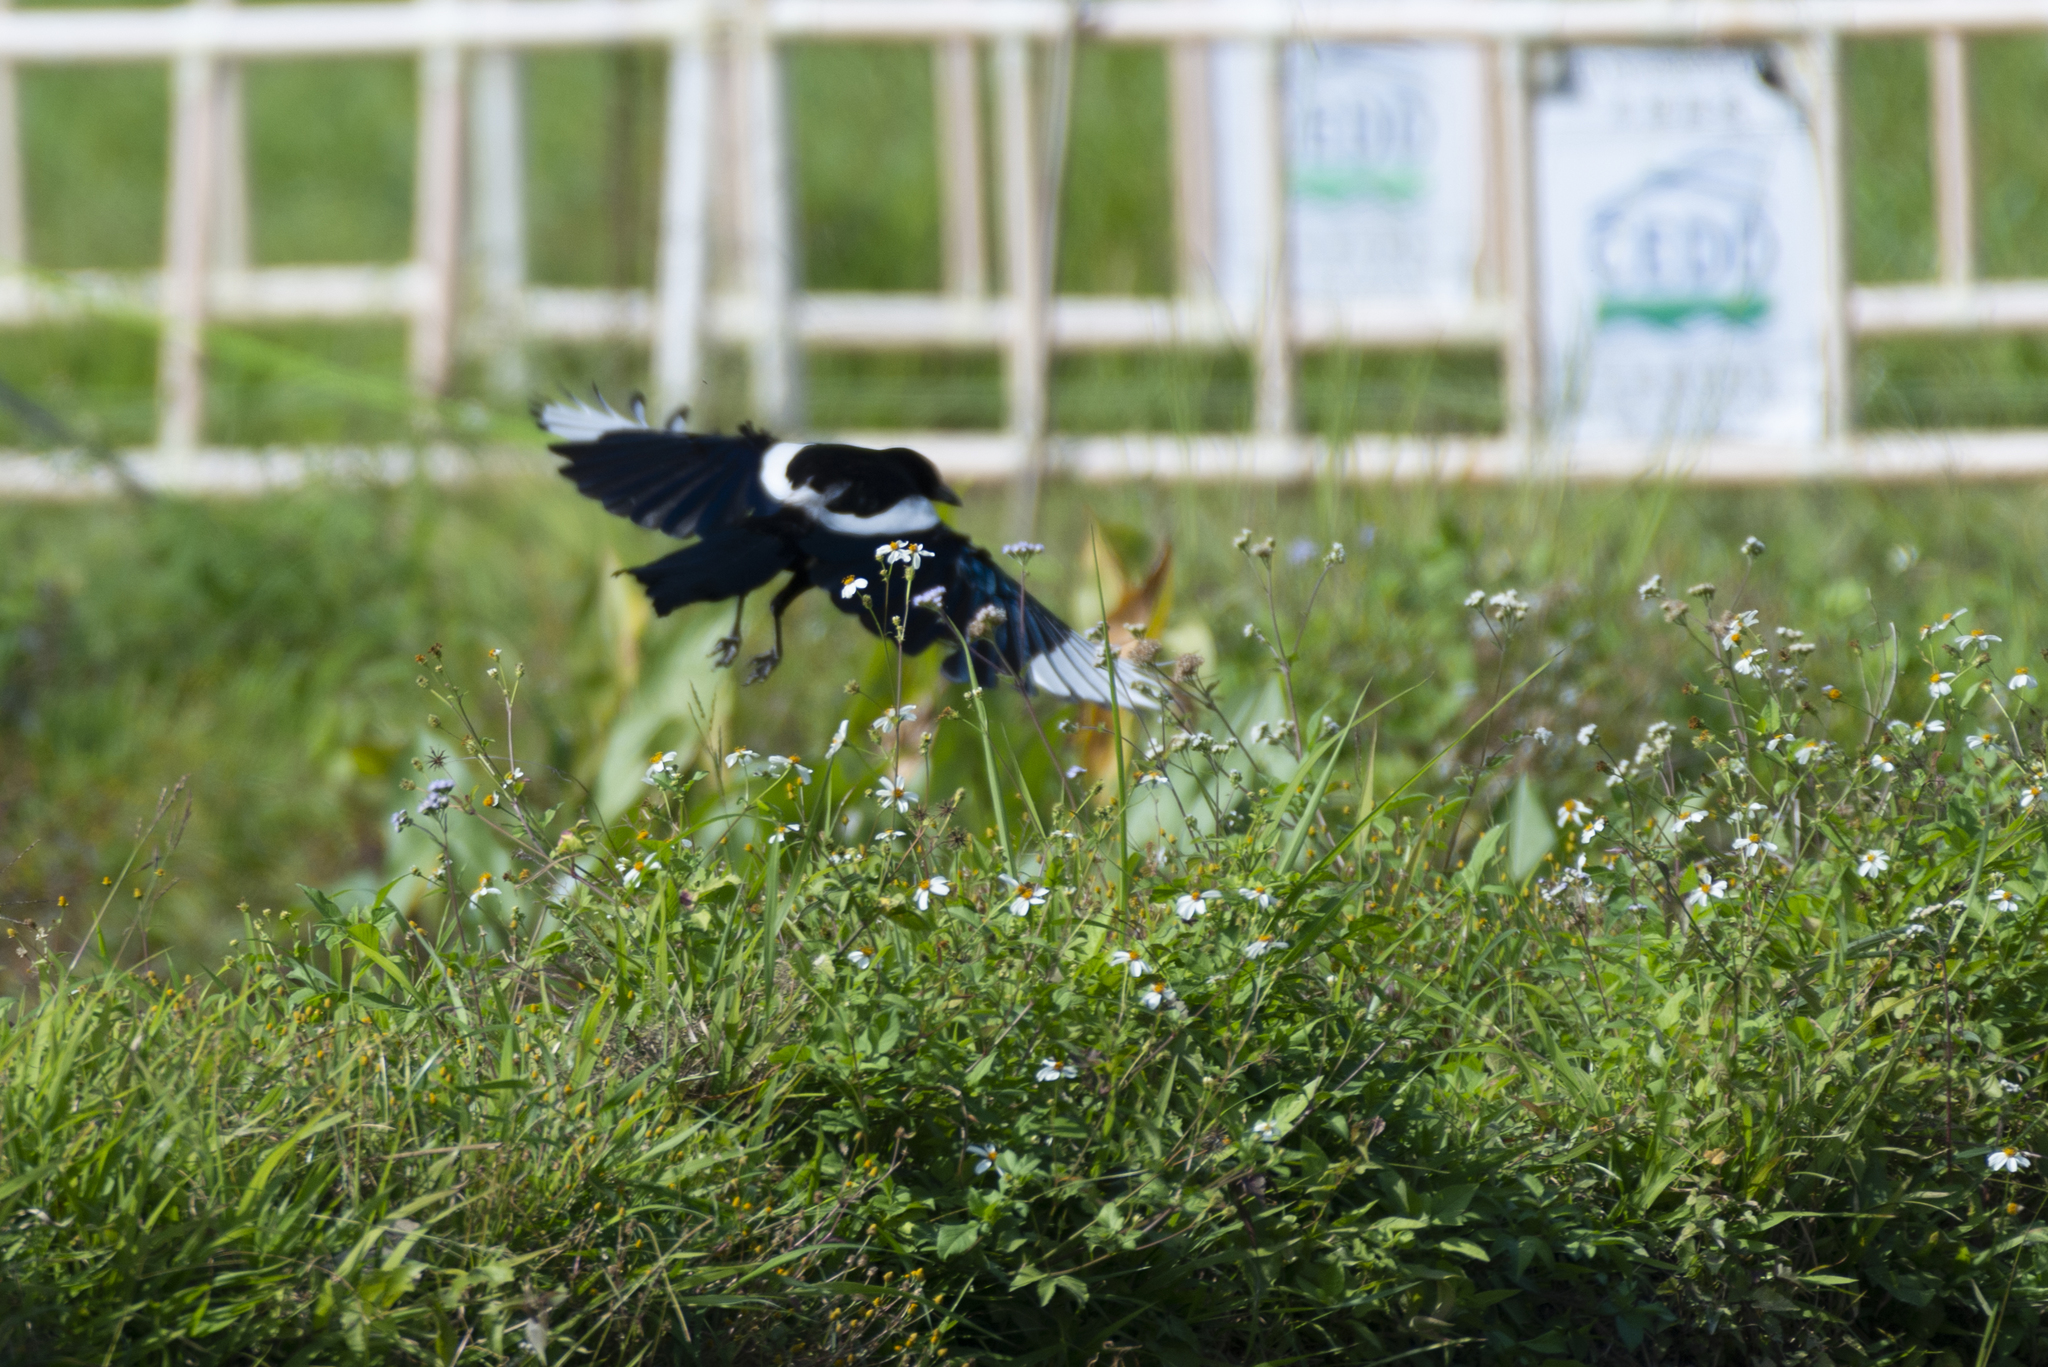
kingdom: Animalia
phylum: Chordata
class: Aves
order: Passeriformes
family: Corvidae
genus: Pica
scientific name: Pica serica
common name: Oriental magpie
